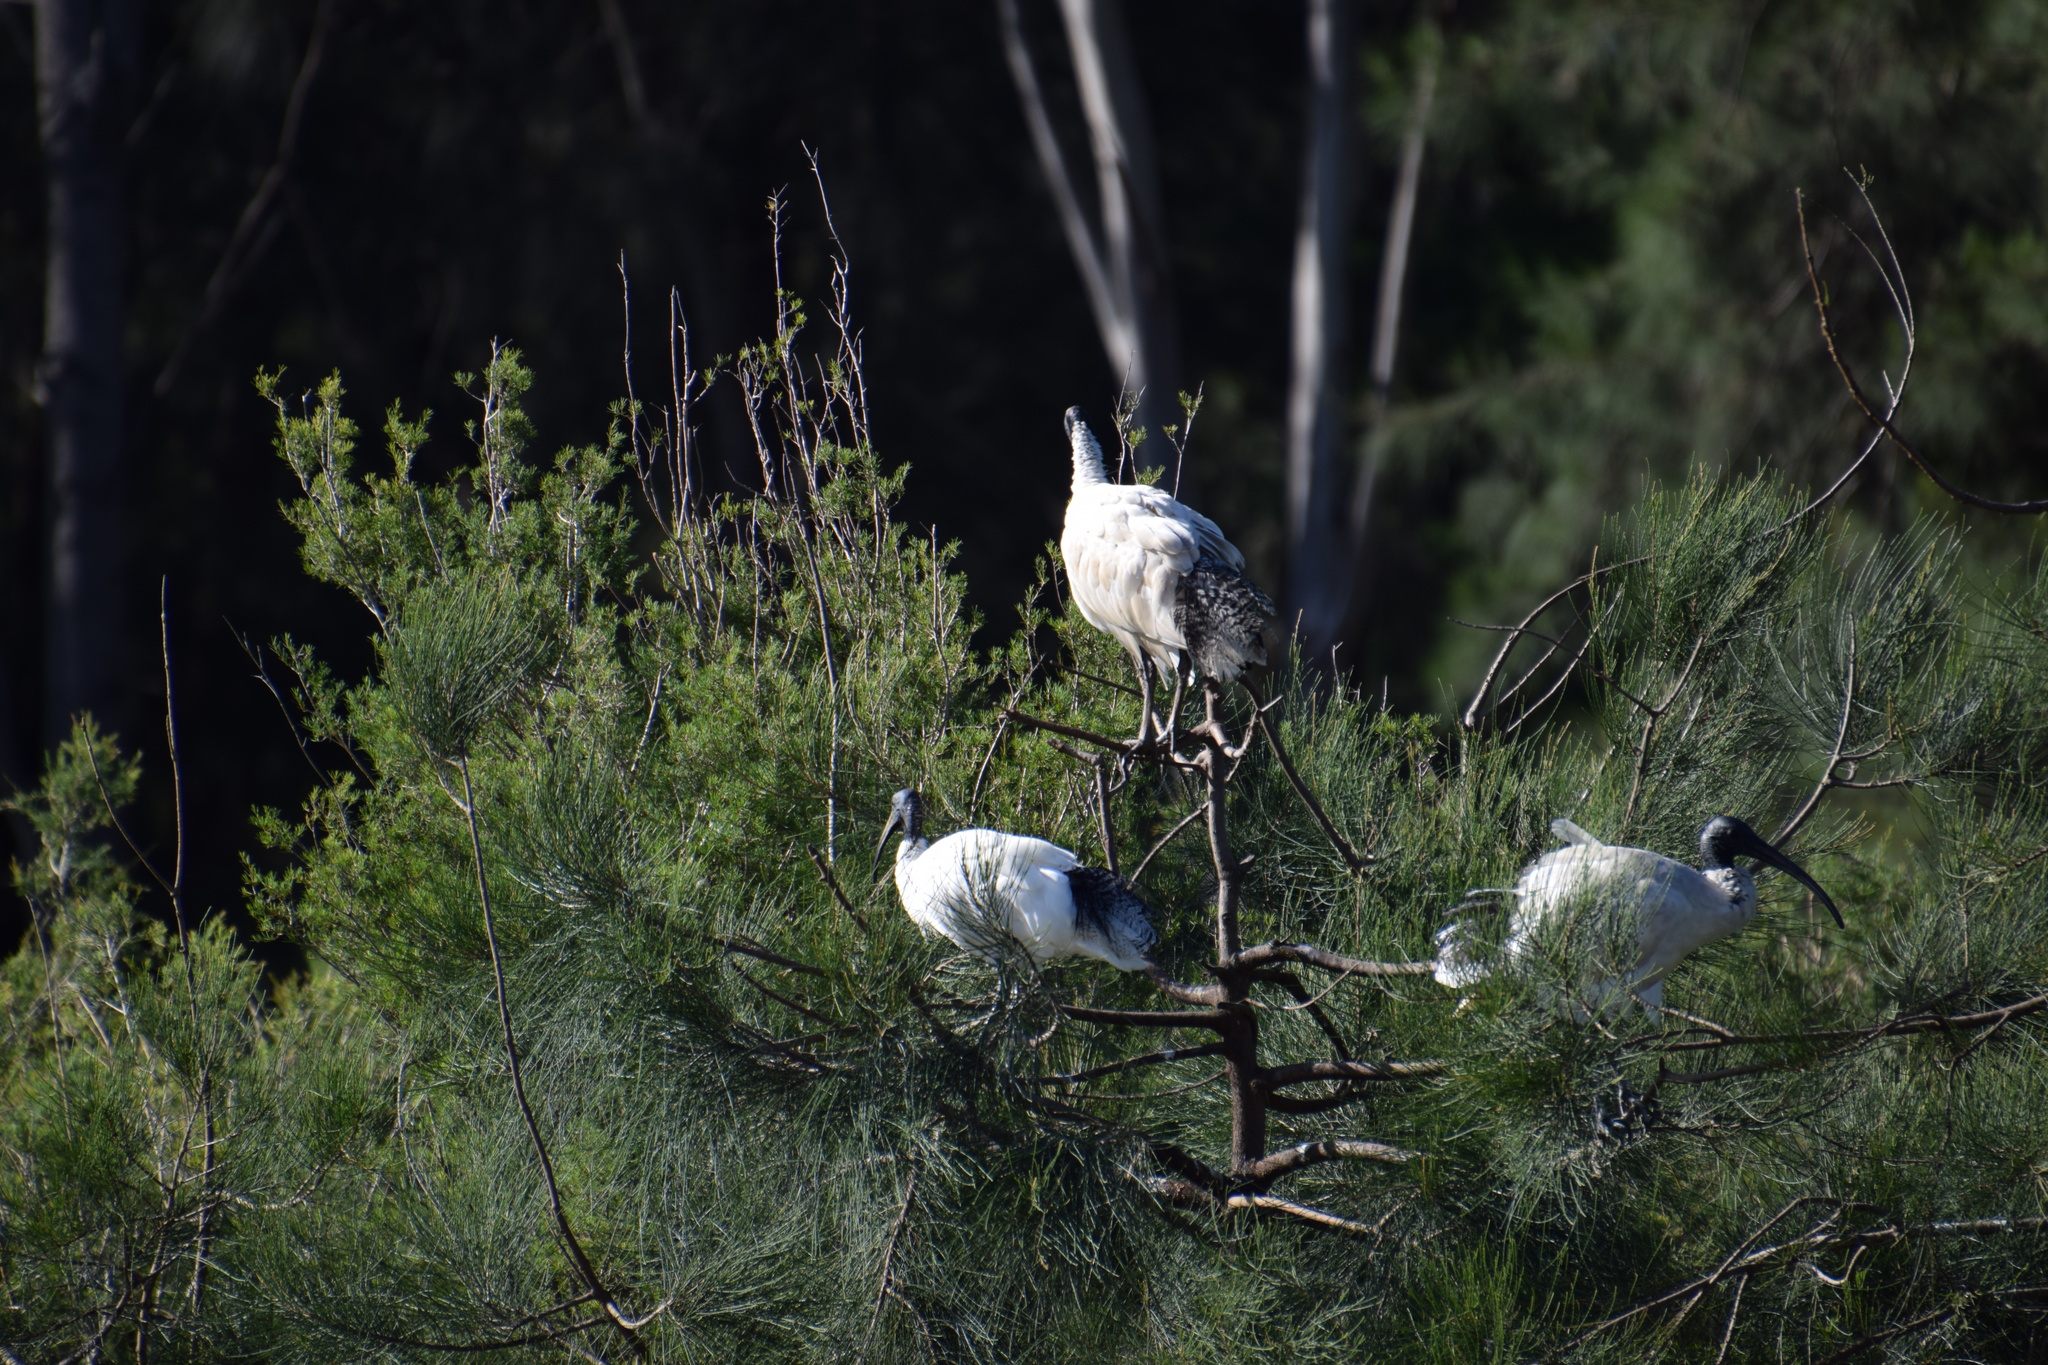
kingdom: Animalia
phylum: Chordata
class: Aves
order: Pelecaniformes
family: Threskiornithidae
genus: Threskiornis
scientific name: Threskiornis molucca
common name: Australian white ibis
